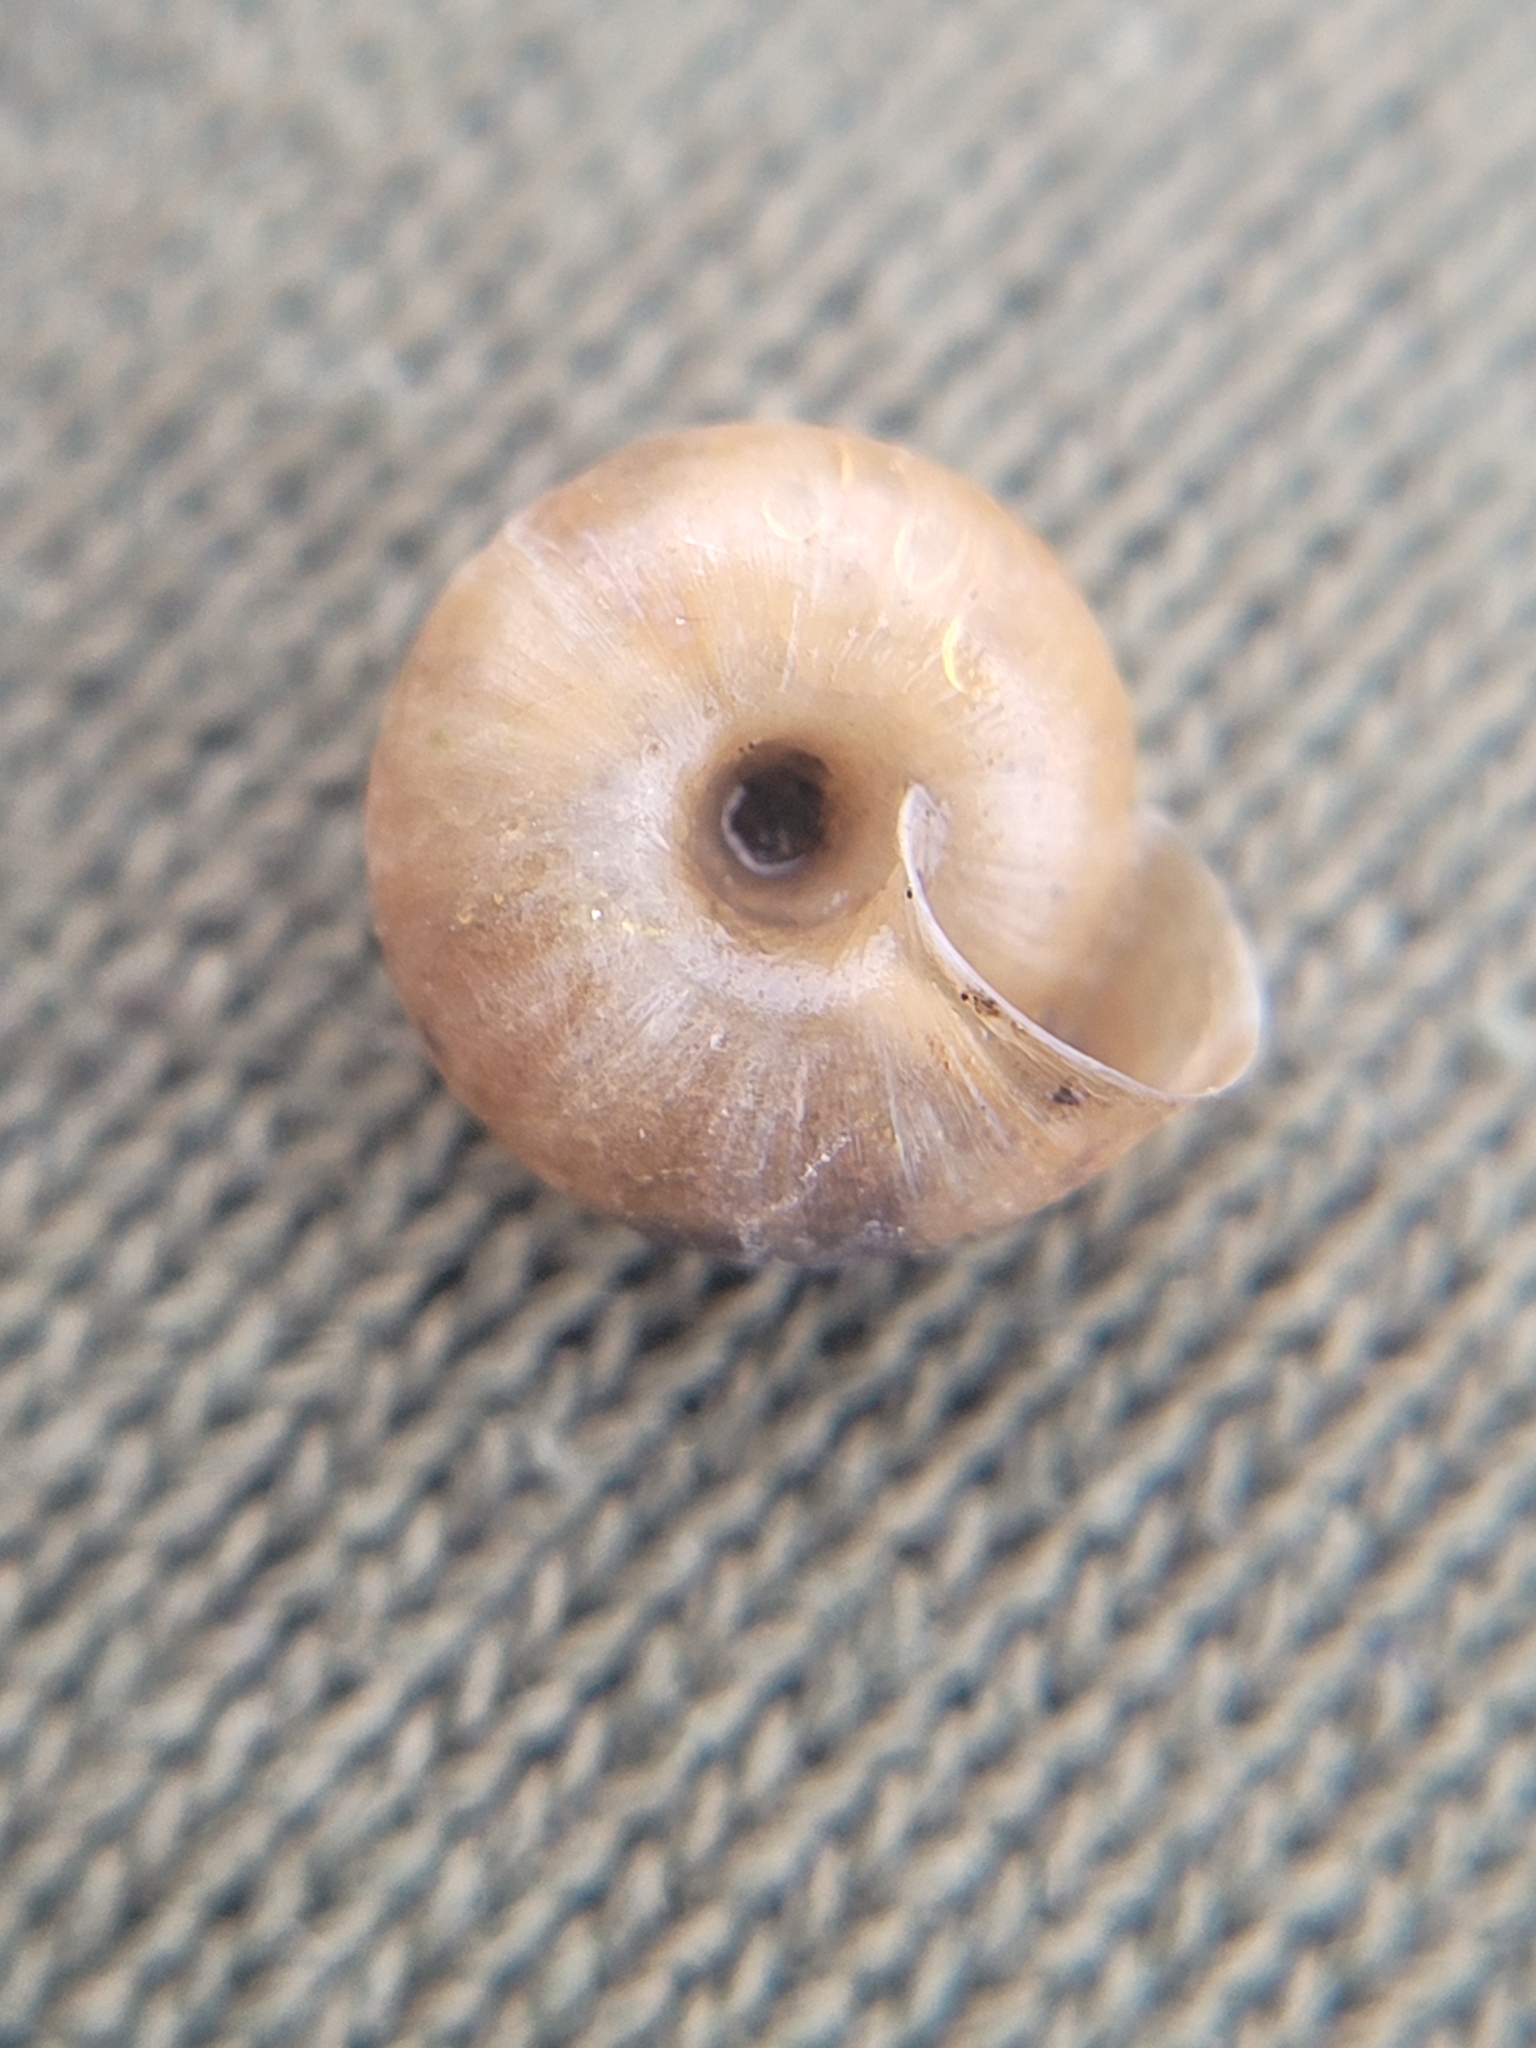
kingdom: Animalia
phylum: Mollusca
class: Gastropoda
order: Stylommatophora
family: Hygromiidae
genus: Trochulus
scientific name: Trochulus hispidus
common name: Hairy snail
